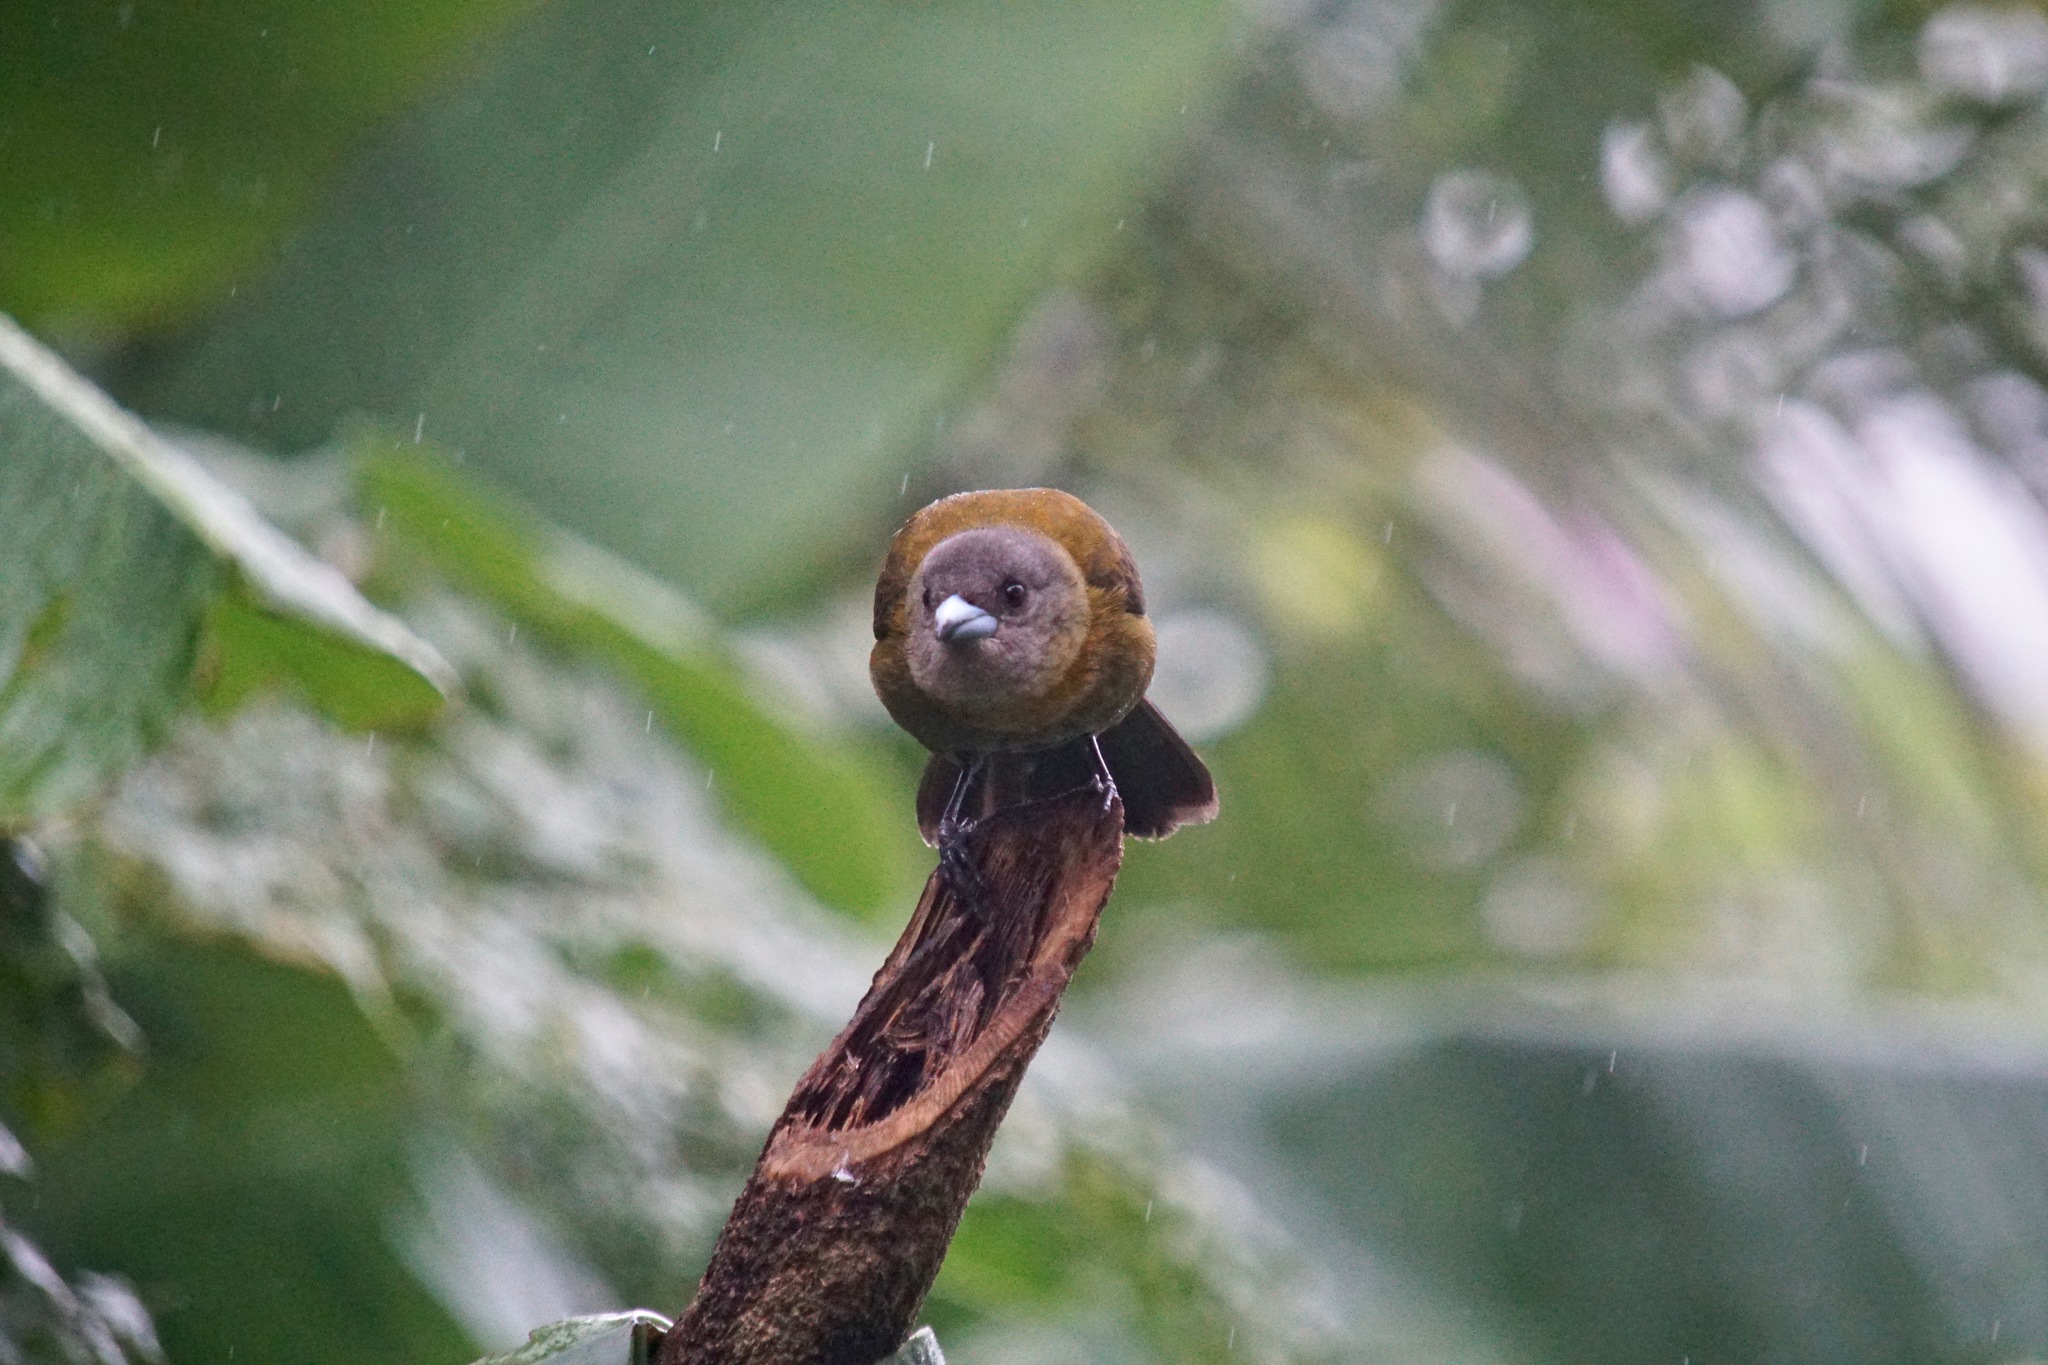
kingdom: Animalia
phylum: Chordata
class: Aves
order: Passeriformes
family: Thraupidae
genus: Ramphocelus
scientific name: Ramphocelus passerinii
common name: Passerini's tanager
